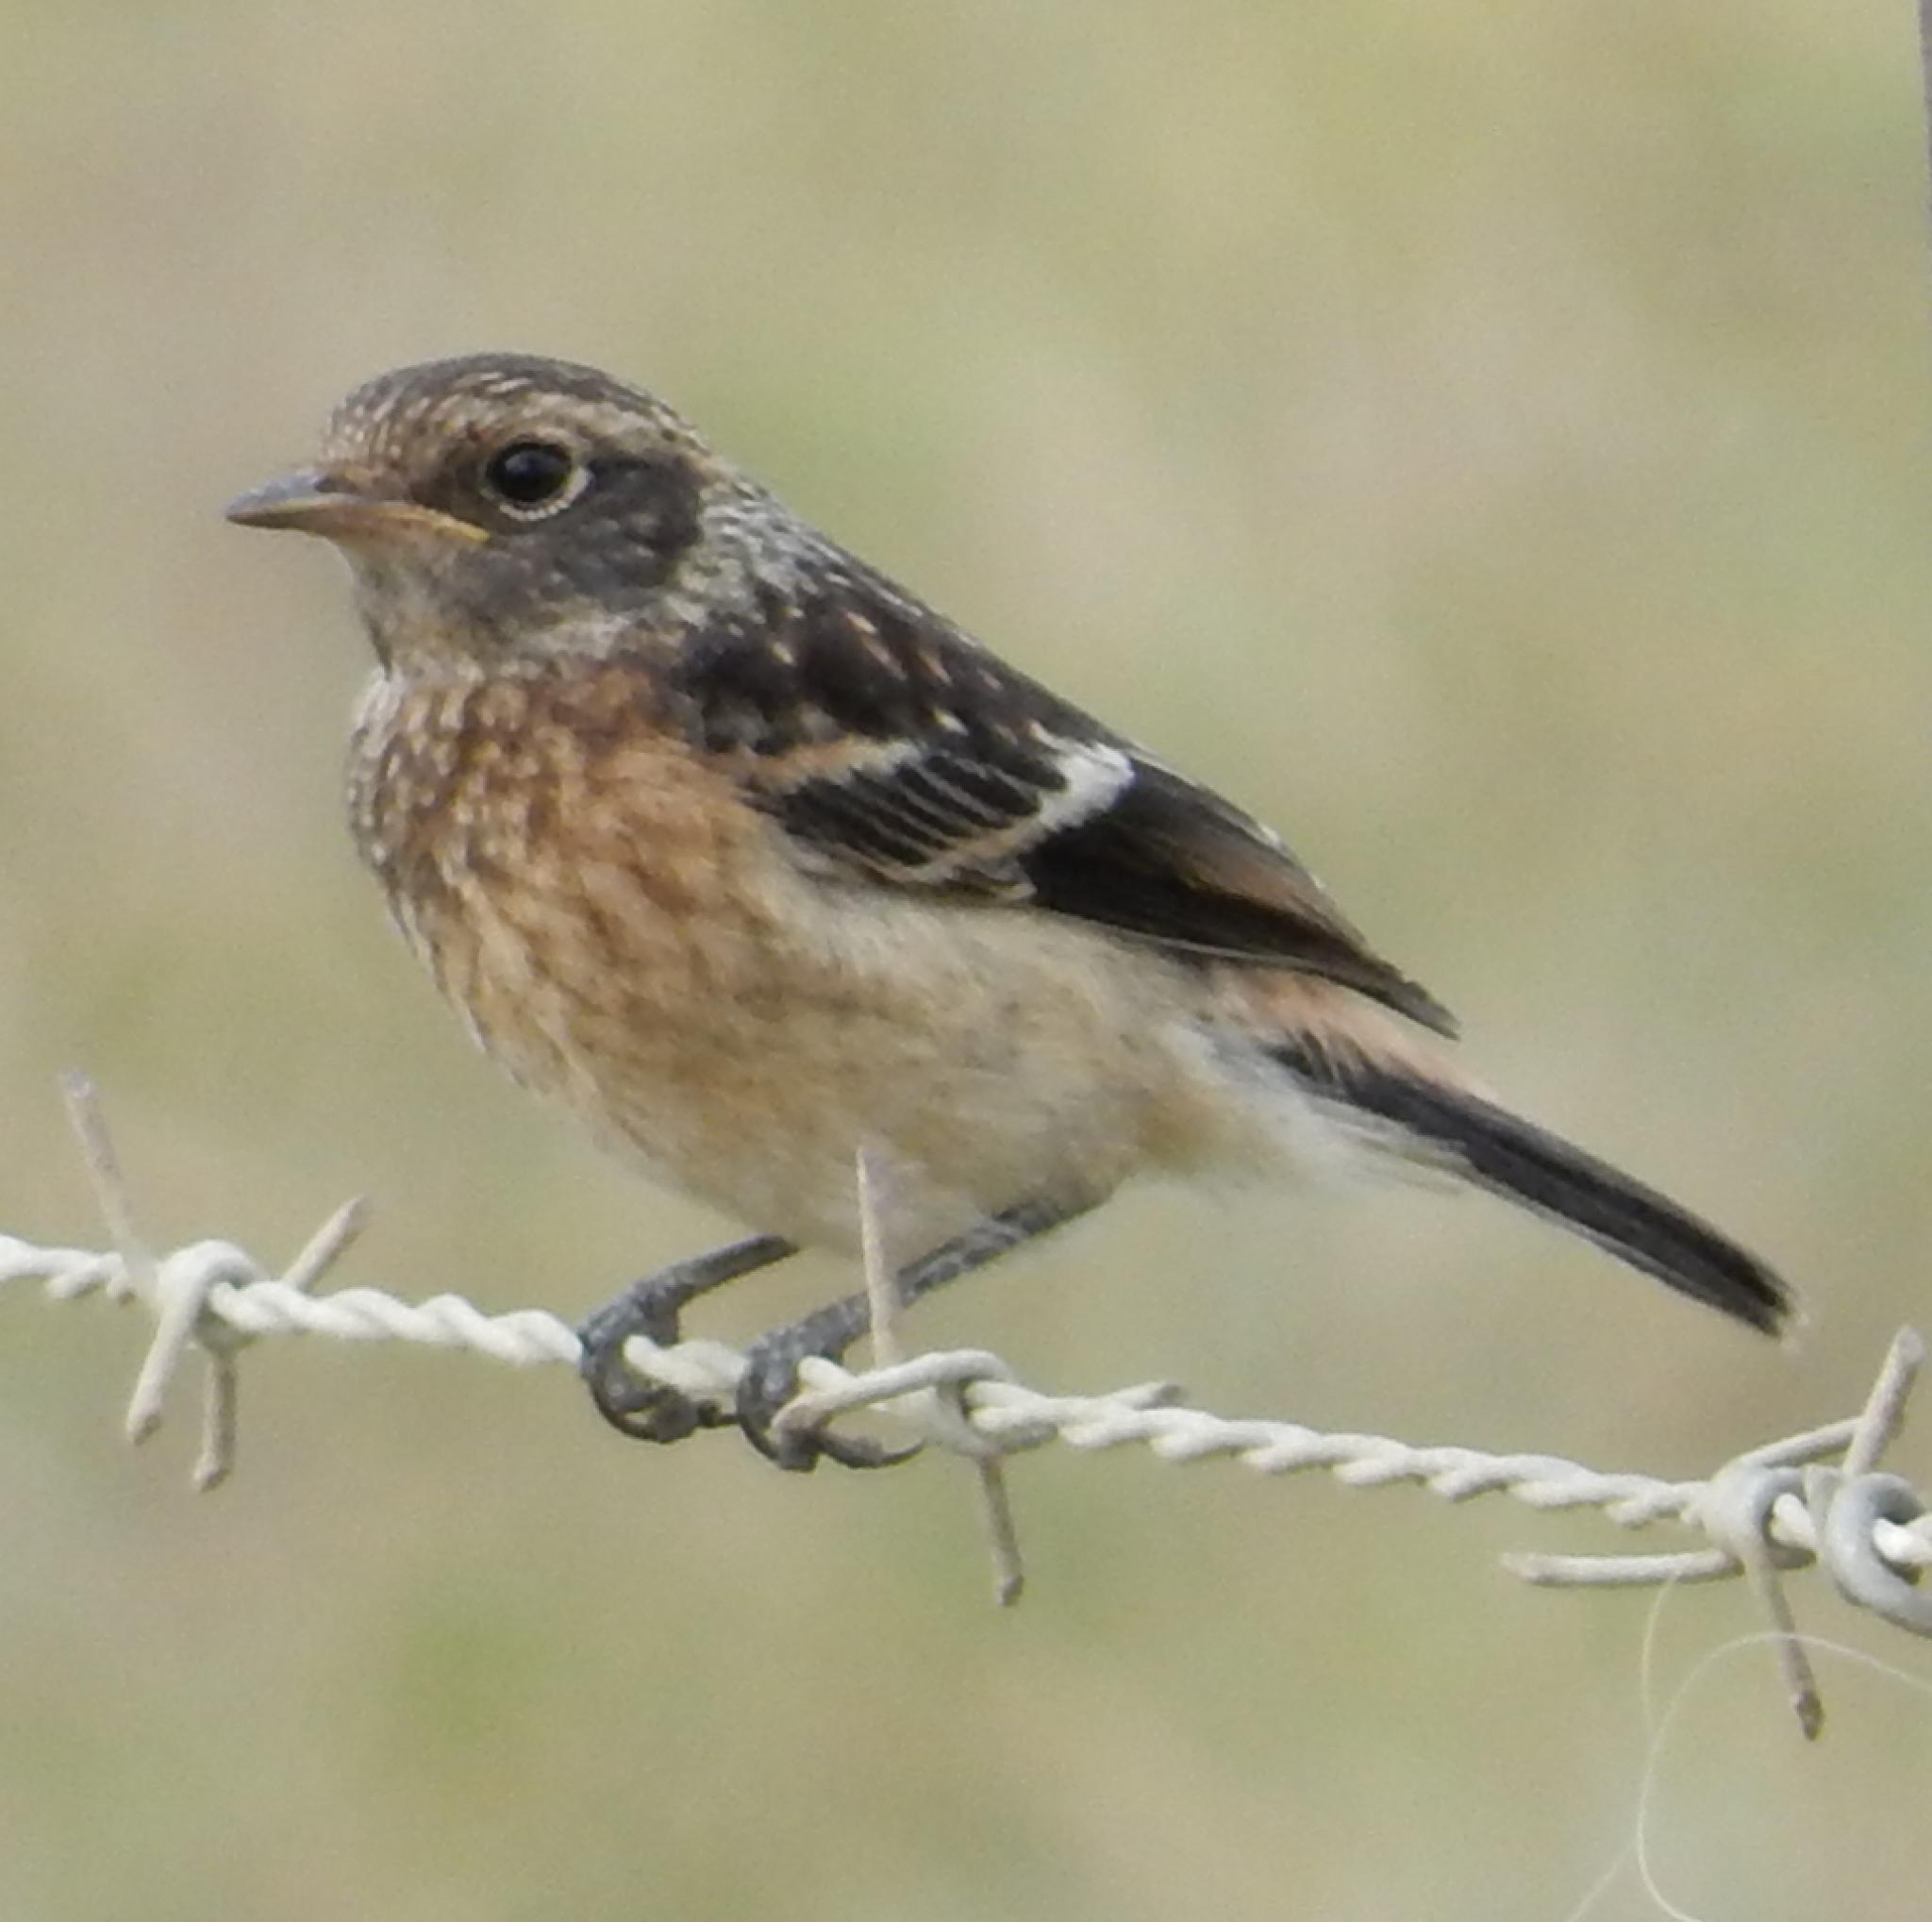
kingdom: Animalia
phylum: Chordata
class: Aves
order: Passeriformes
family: Muscicapidae
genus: Saxicola
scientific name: Saxicola torquatus
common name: African stonechat
